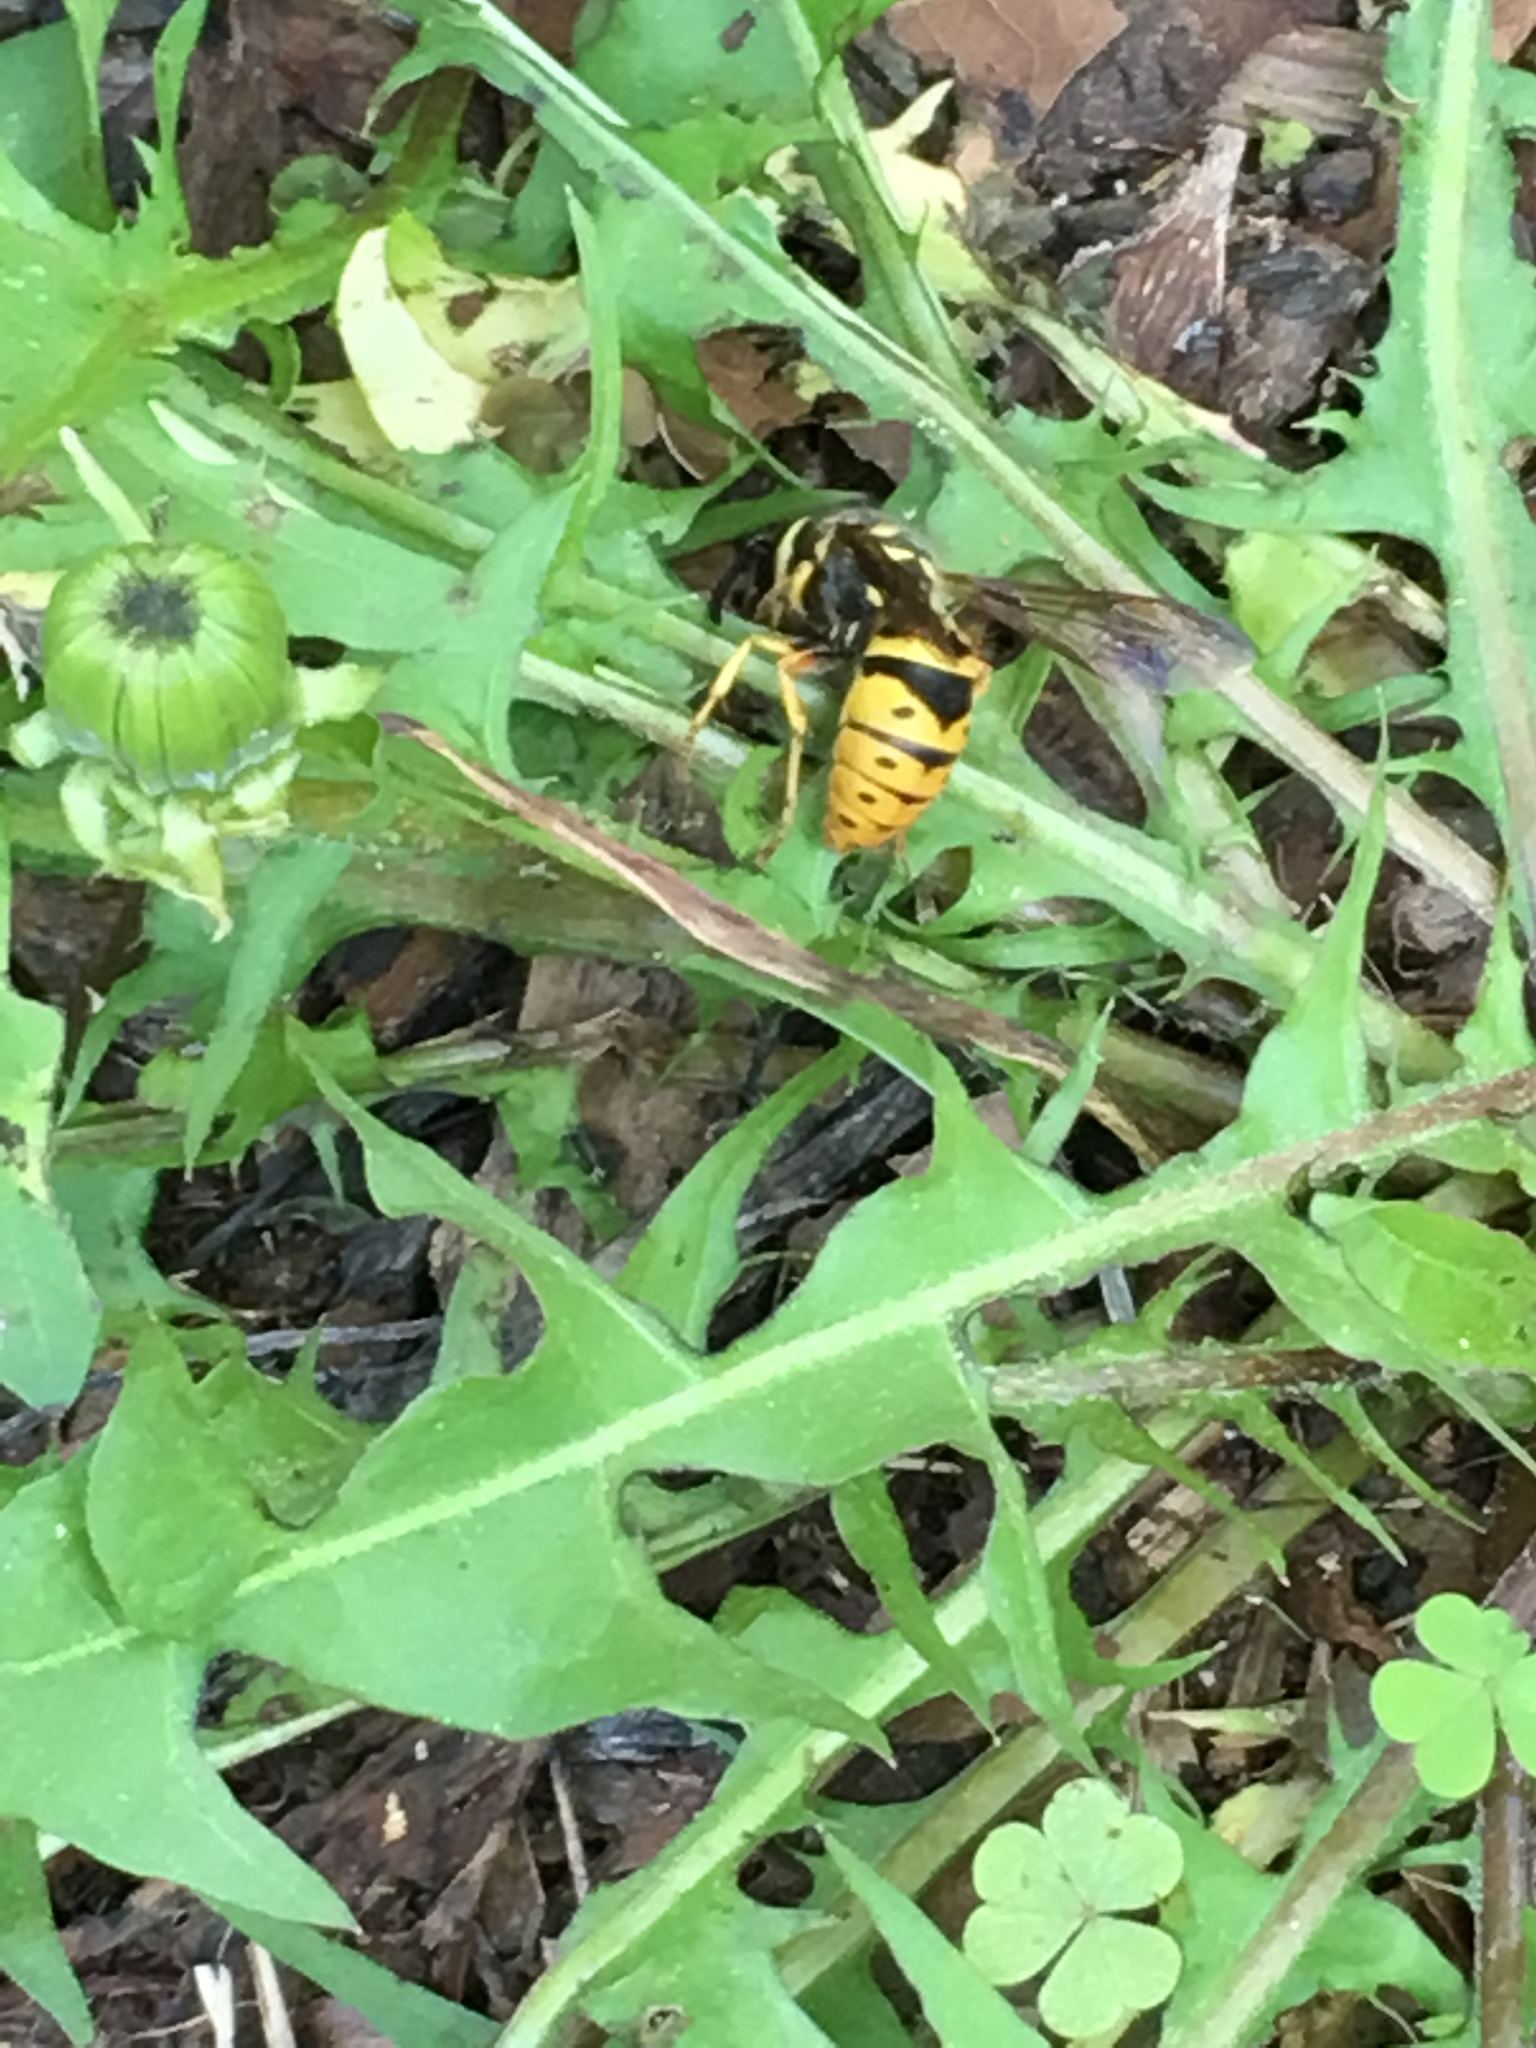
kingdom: Animalia
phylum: Arthropoda
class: Insecta
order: Hymenoptera
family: Vespidae
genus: Vespula
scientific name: Vespula flavopilosa
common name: Downy yellowjacket
